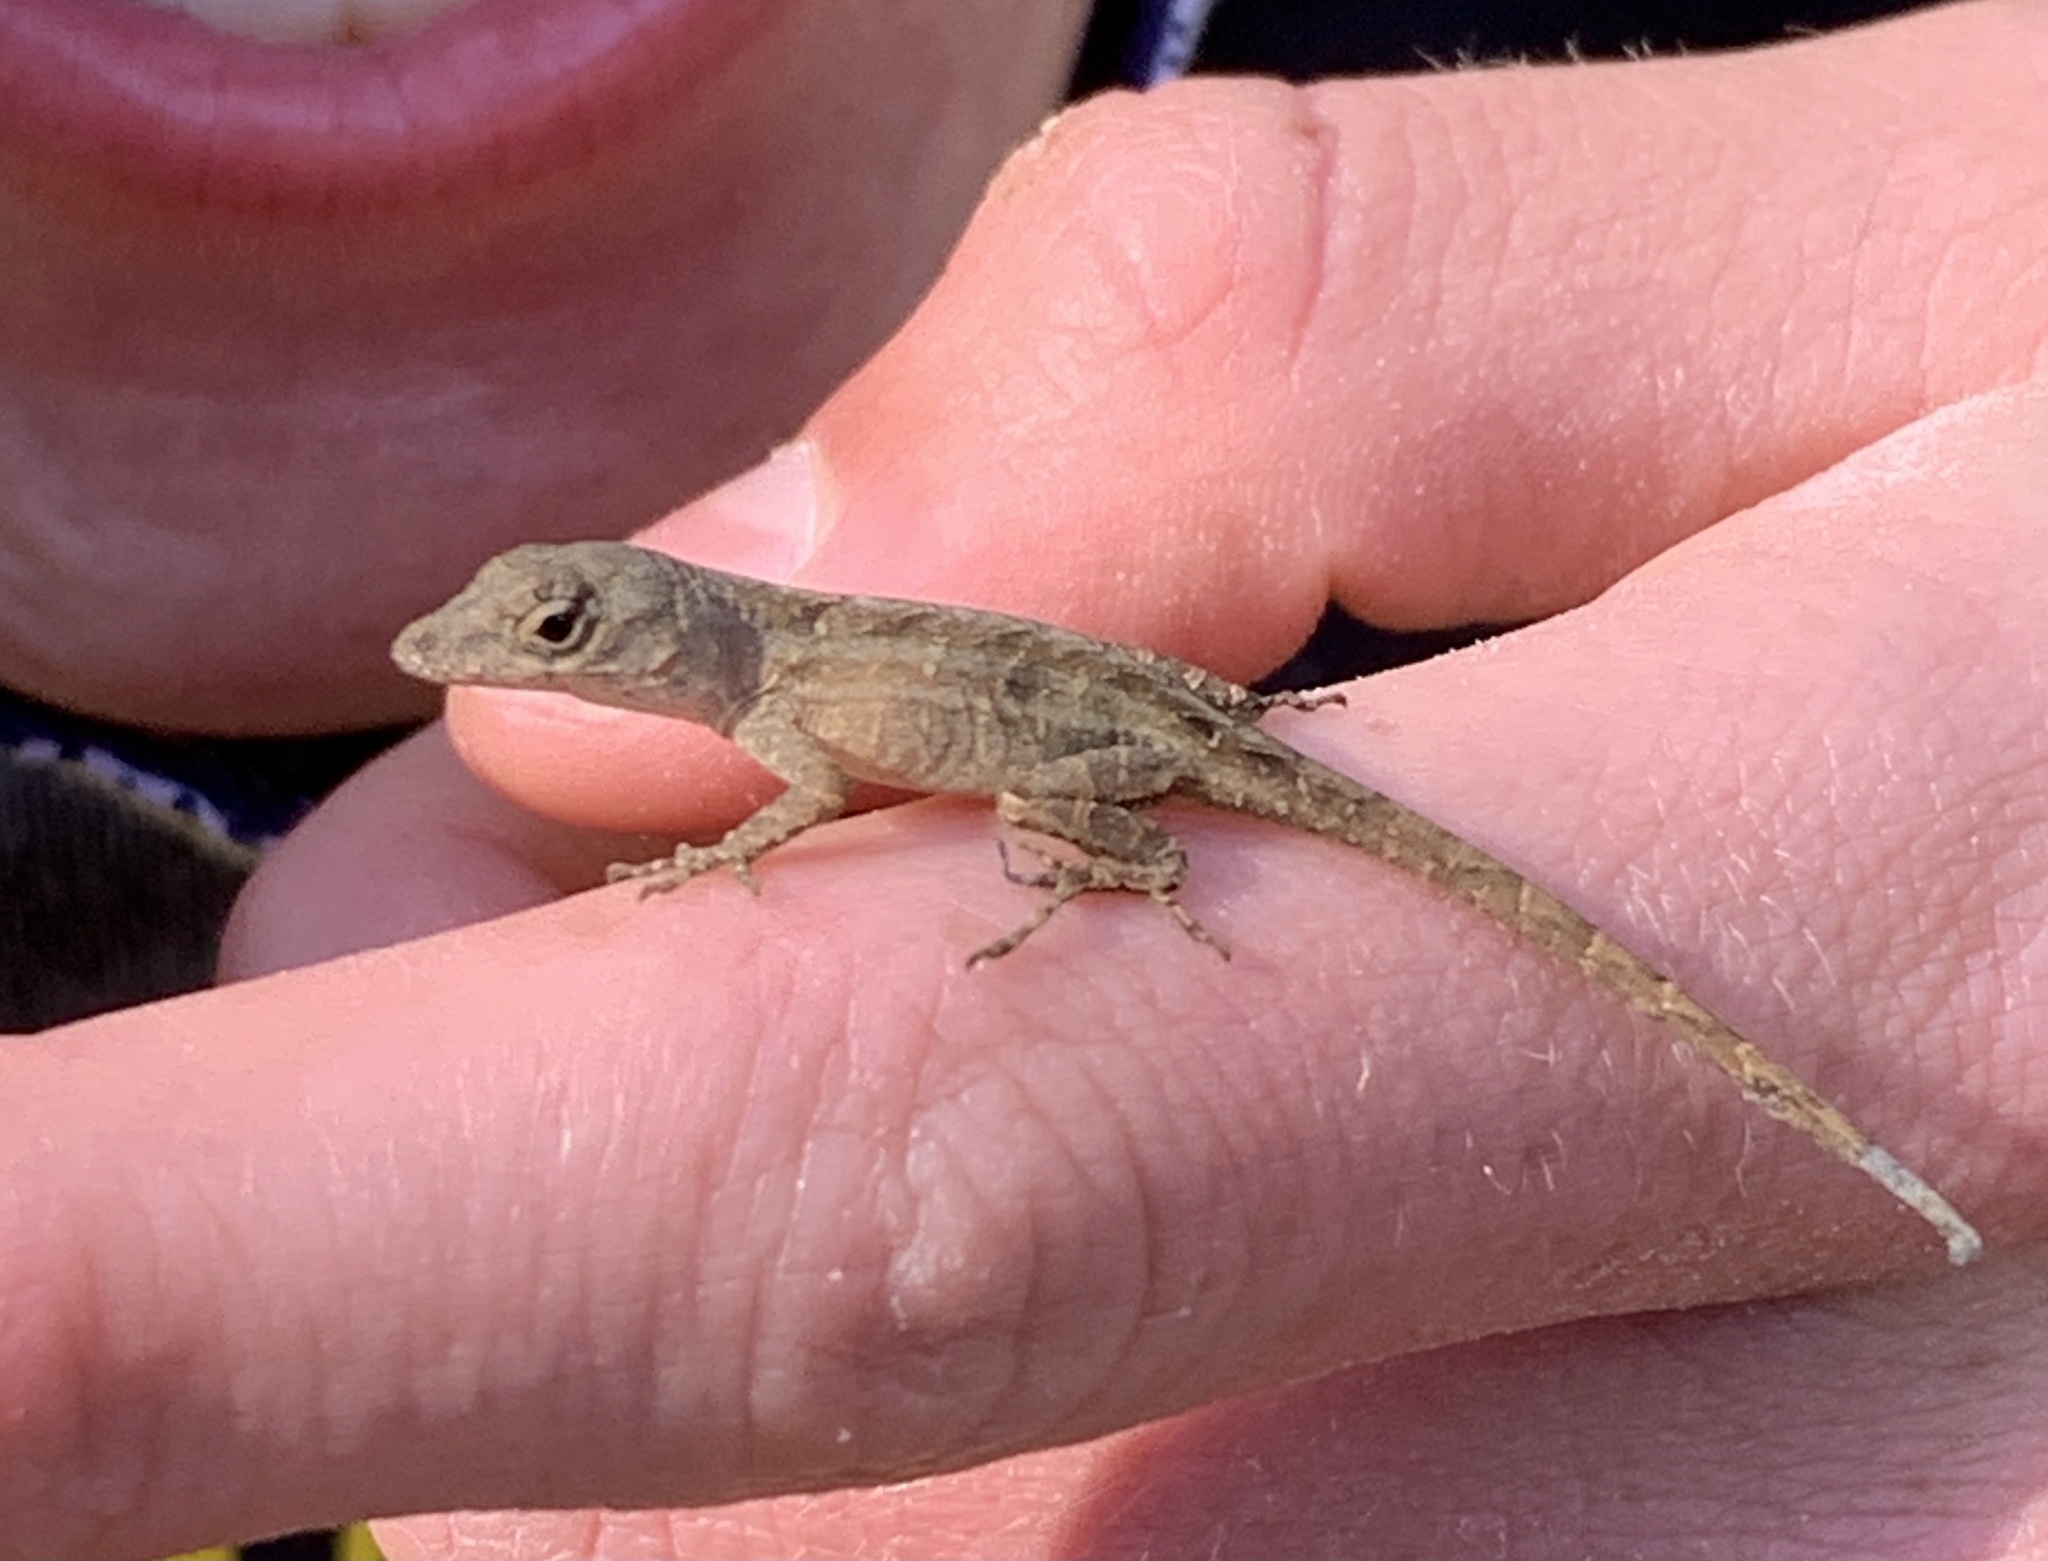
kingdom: Animalia
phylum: Chordata
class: Squamata
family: Dactyloidae
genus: Anolis
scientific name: Anolis sagrei
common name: Brown anole
